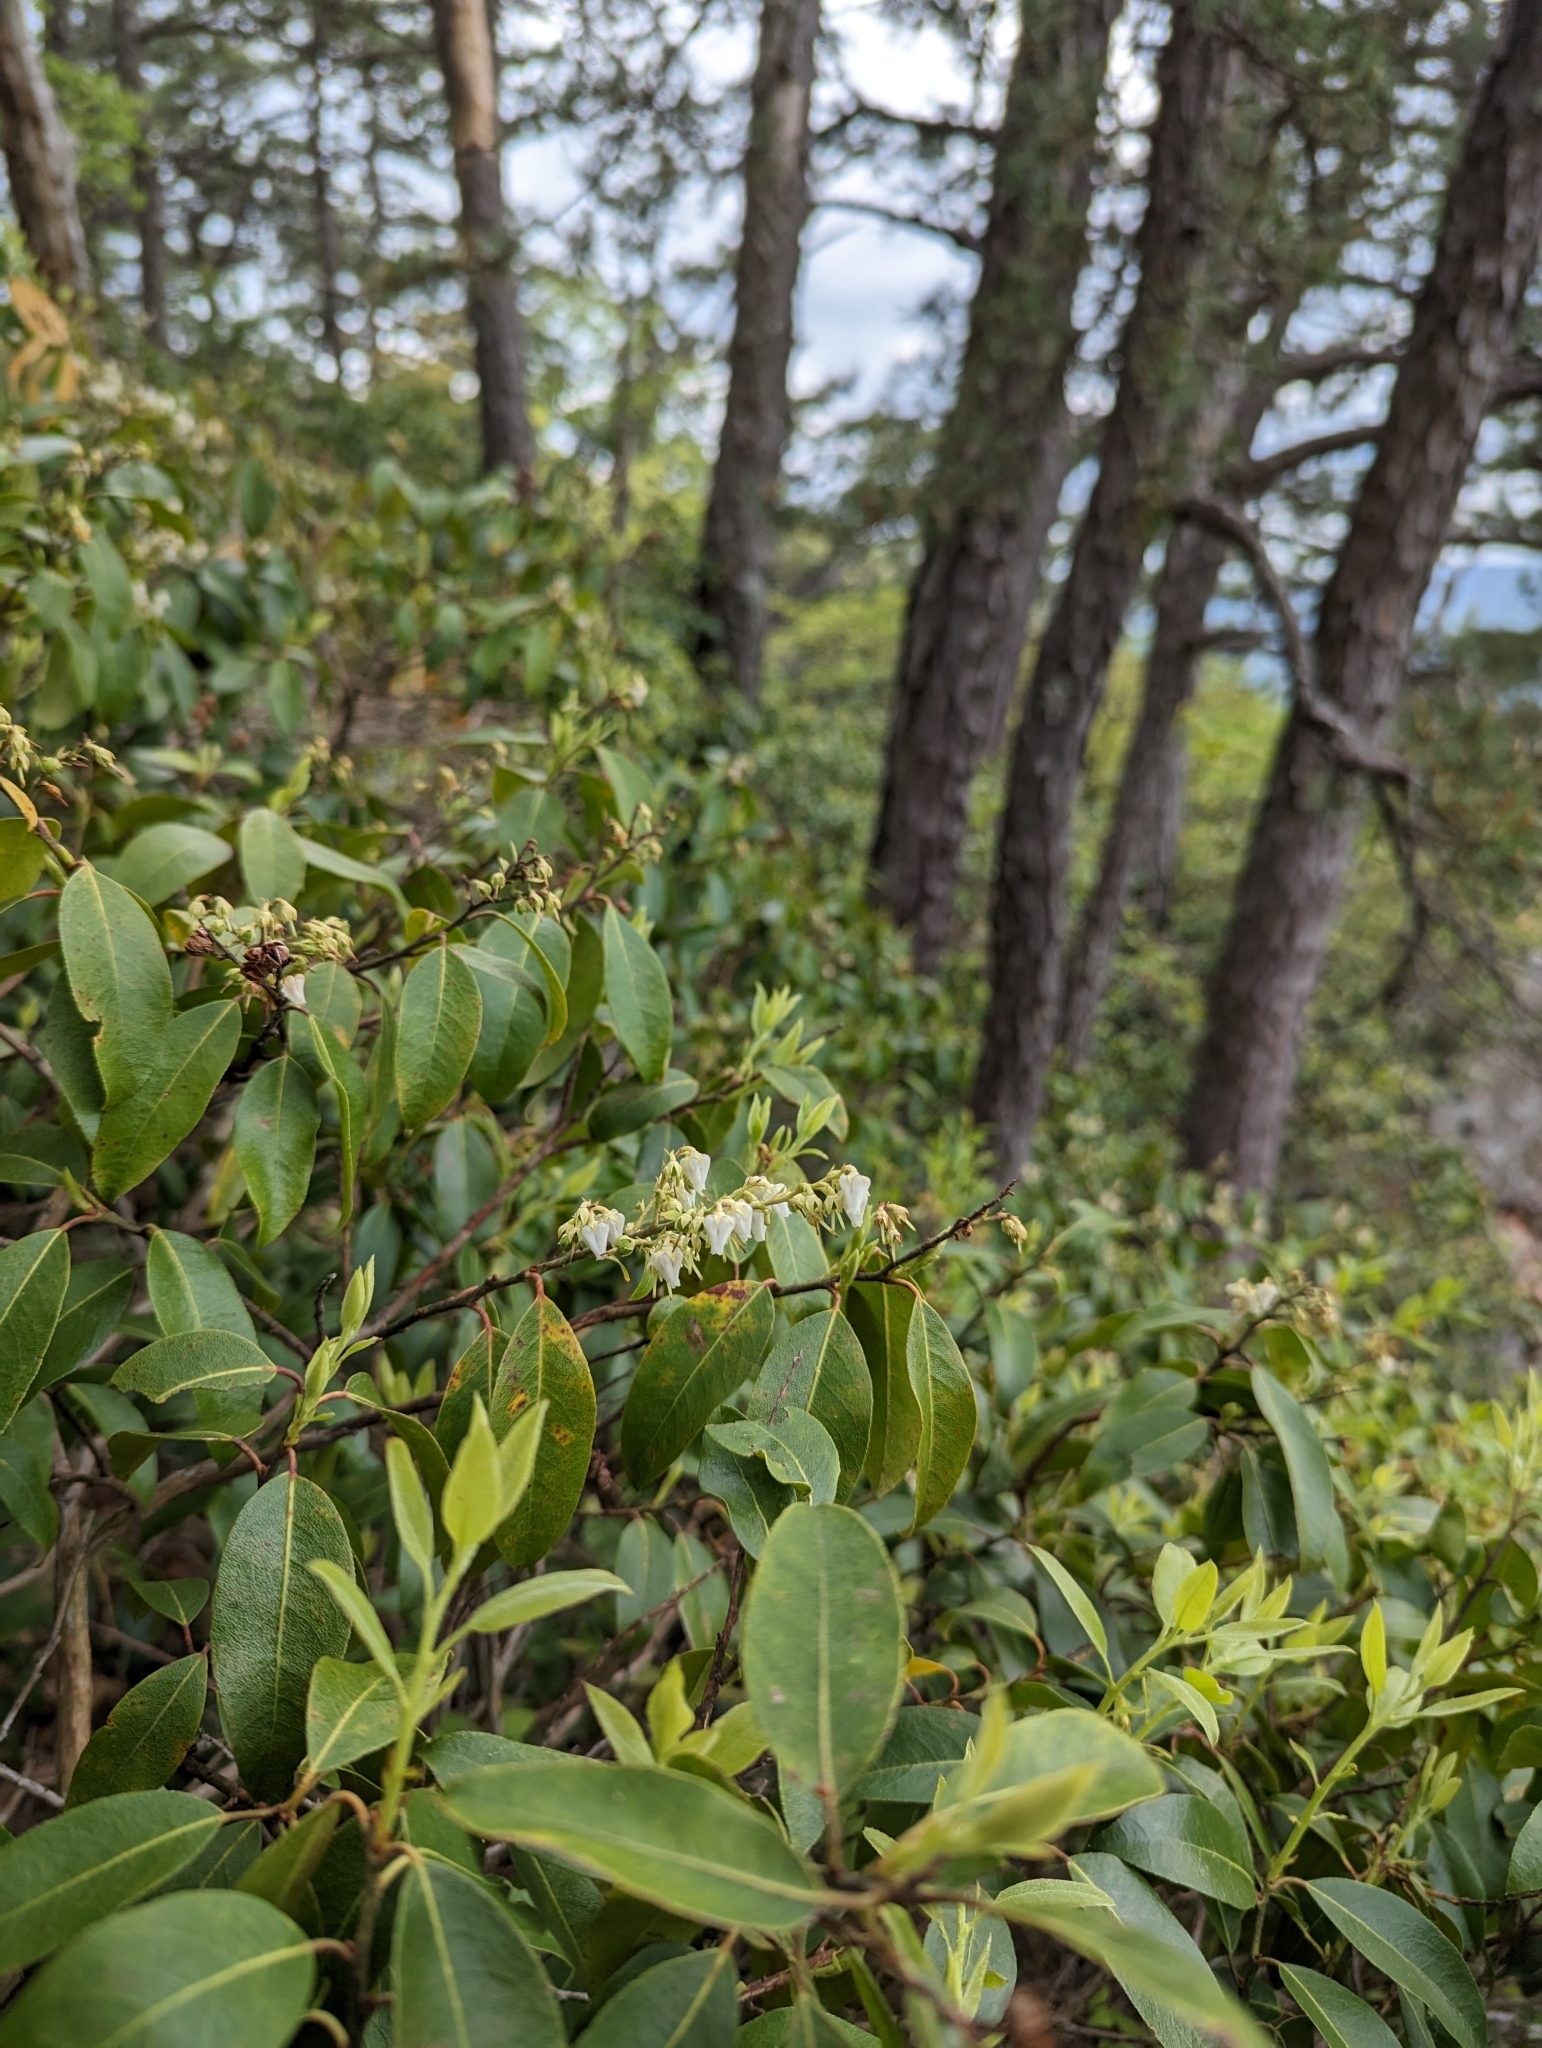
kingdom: Plantae
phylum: Tracheophyta
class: Magnoliopsida
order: Ericales
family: Ericaceae
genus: Pieris
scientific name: Pieris floribunda
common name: Flutterbush
